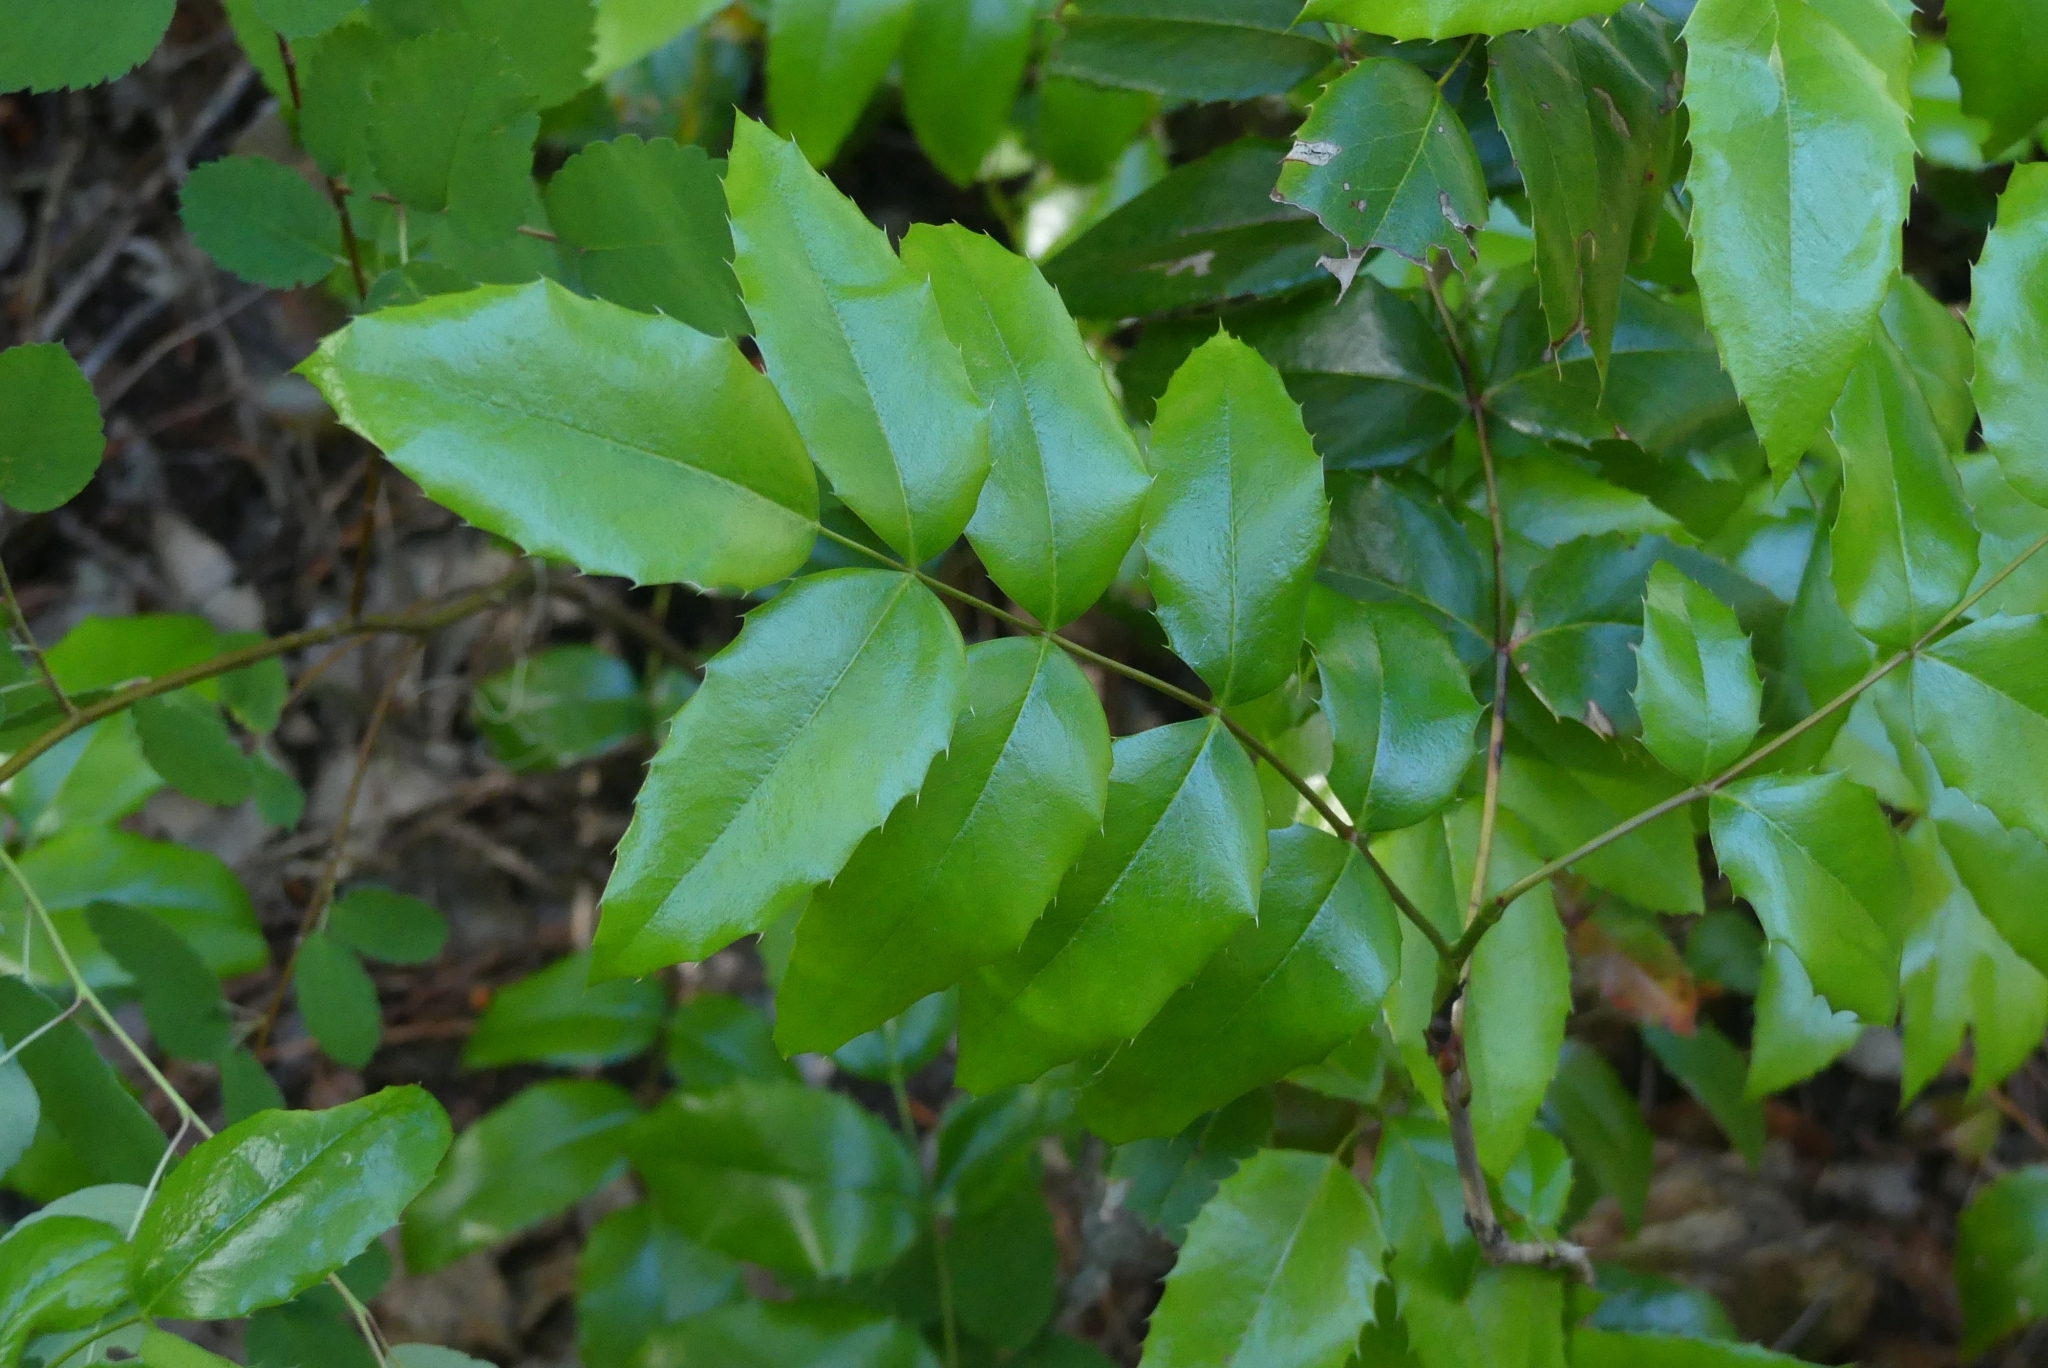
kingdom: Plantae
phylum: Tracheophyta
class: Magnoliopsida
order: Ranunculales
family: Berberidaceae
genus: Mahonia
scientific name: Mahonia aquifolium
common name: Oregon-grape
